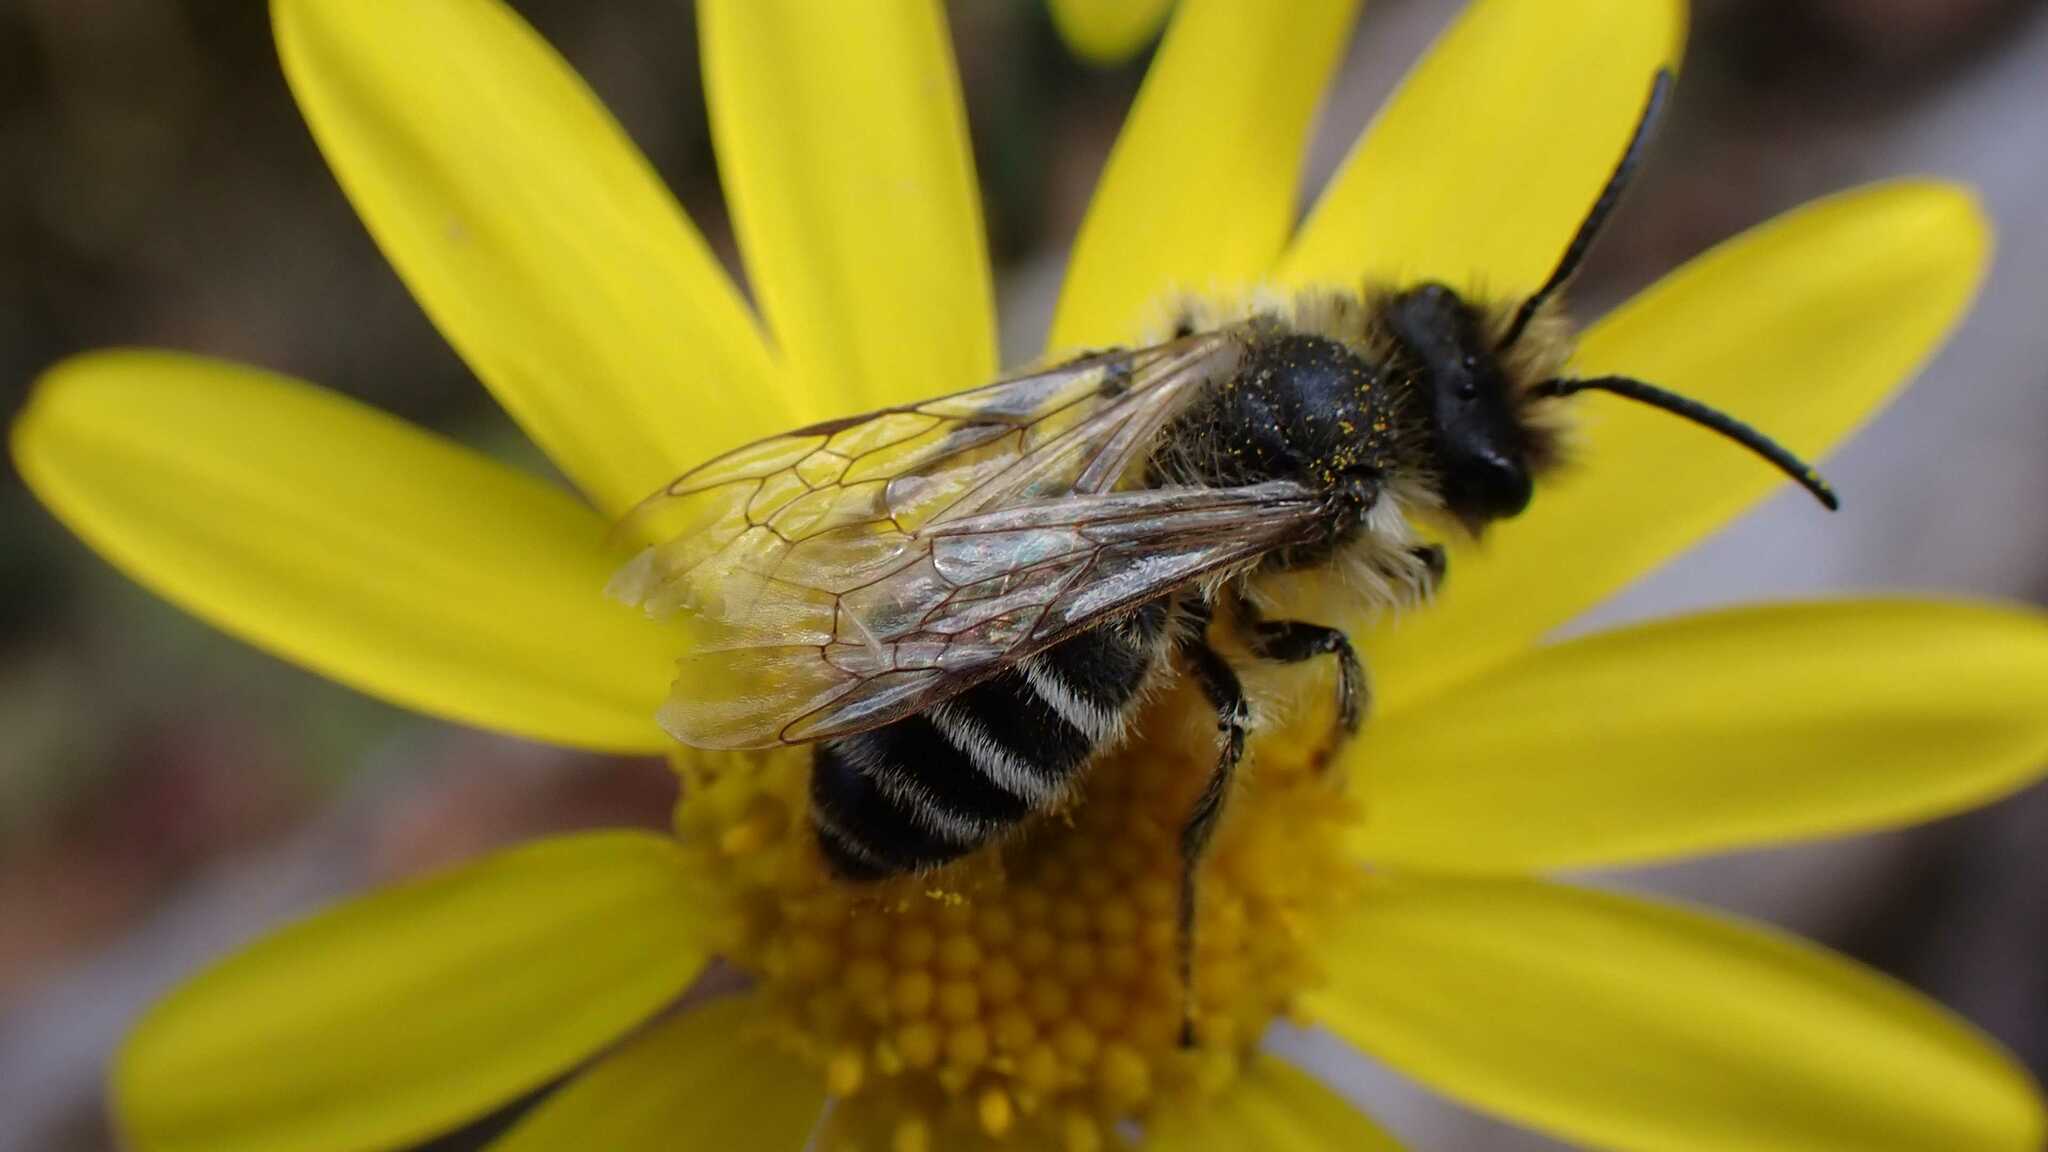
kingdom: Animalia
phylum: Arthropoda
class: Insecta
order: Hymenoptera
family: Andrenidae
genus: Andrena
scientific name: Andrena flavipes
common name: Yellow-legged mining bee
